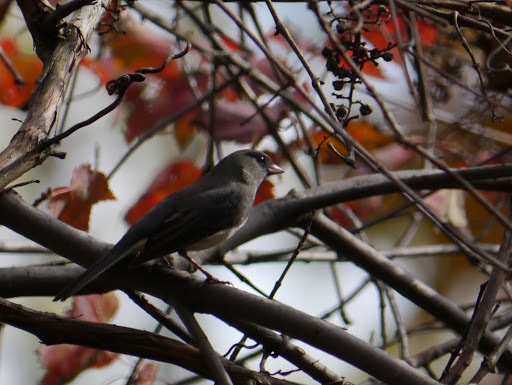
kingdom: Animalia
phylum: Chordata
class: Aves
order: Passeriformes
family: Passerellidae
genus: Junco
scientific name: Junco hyemalis
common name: Dark-eyed junco
